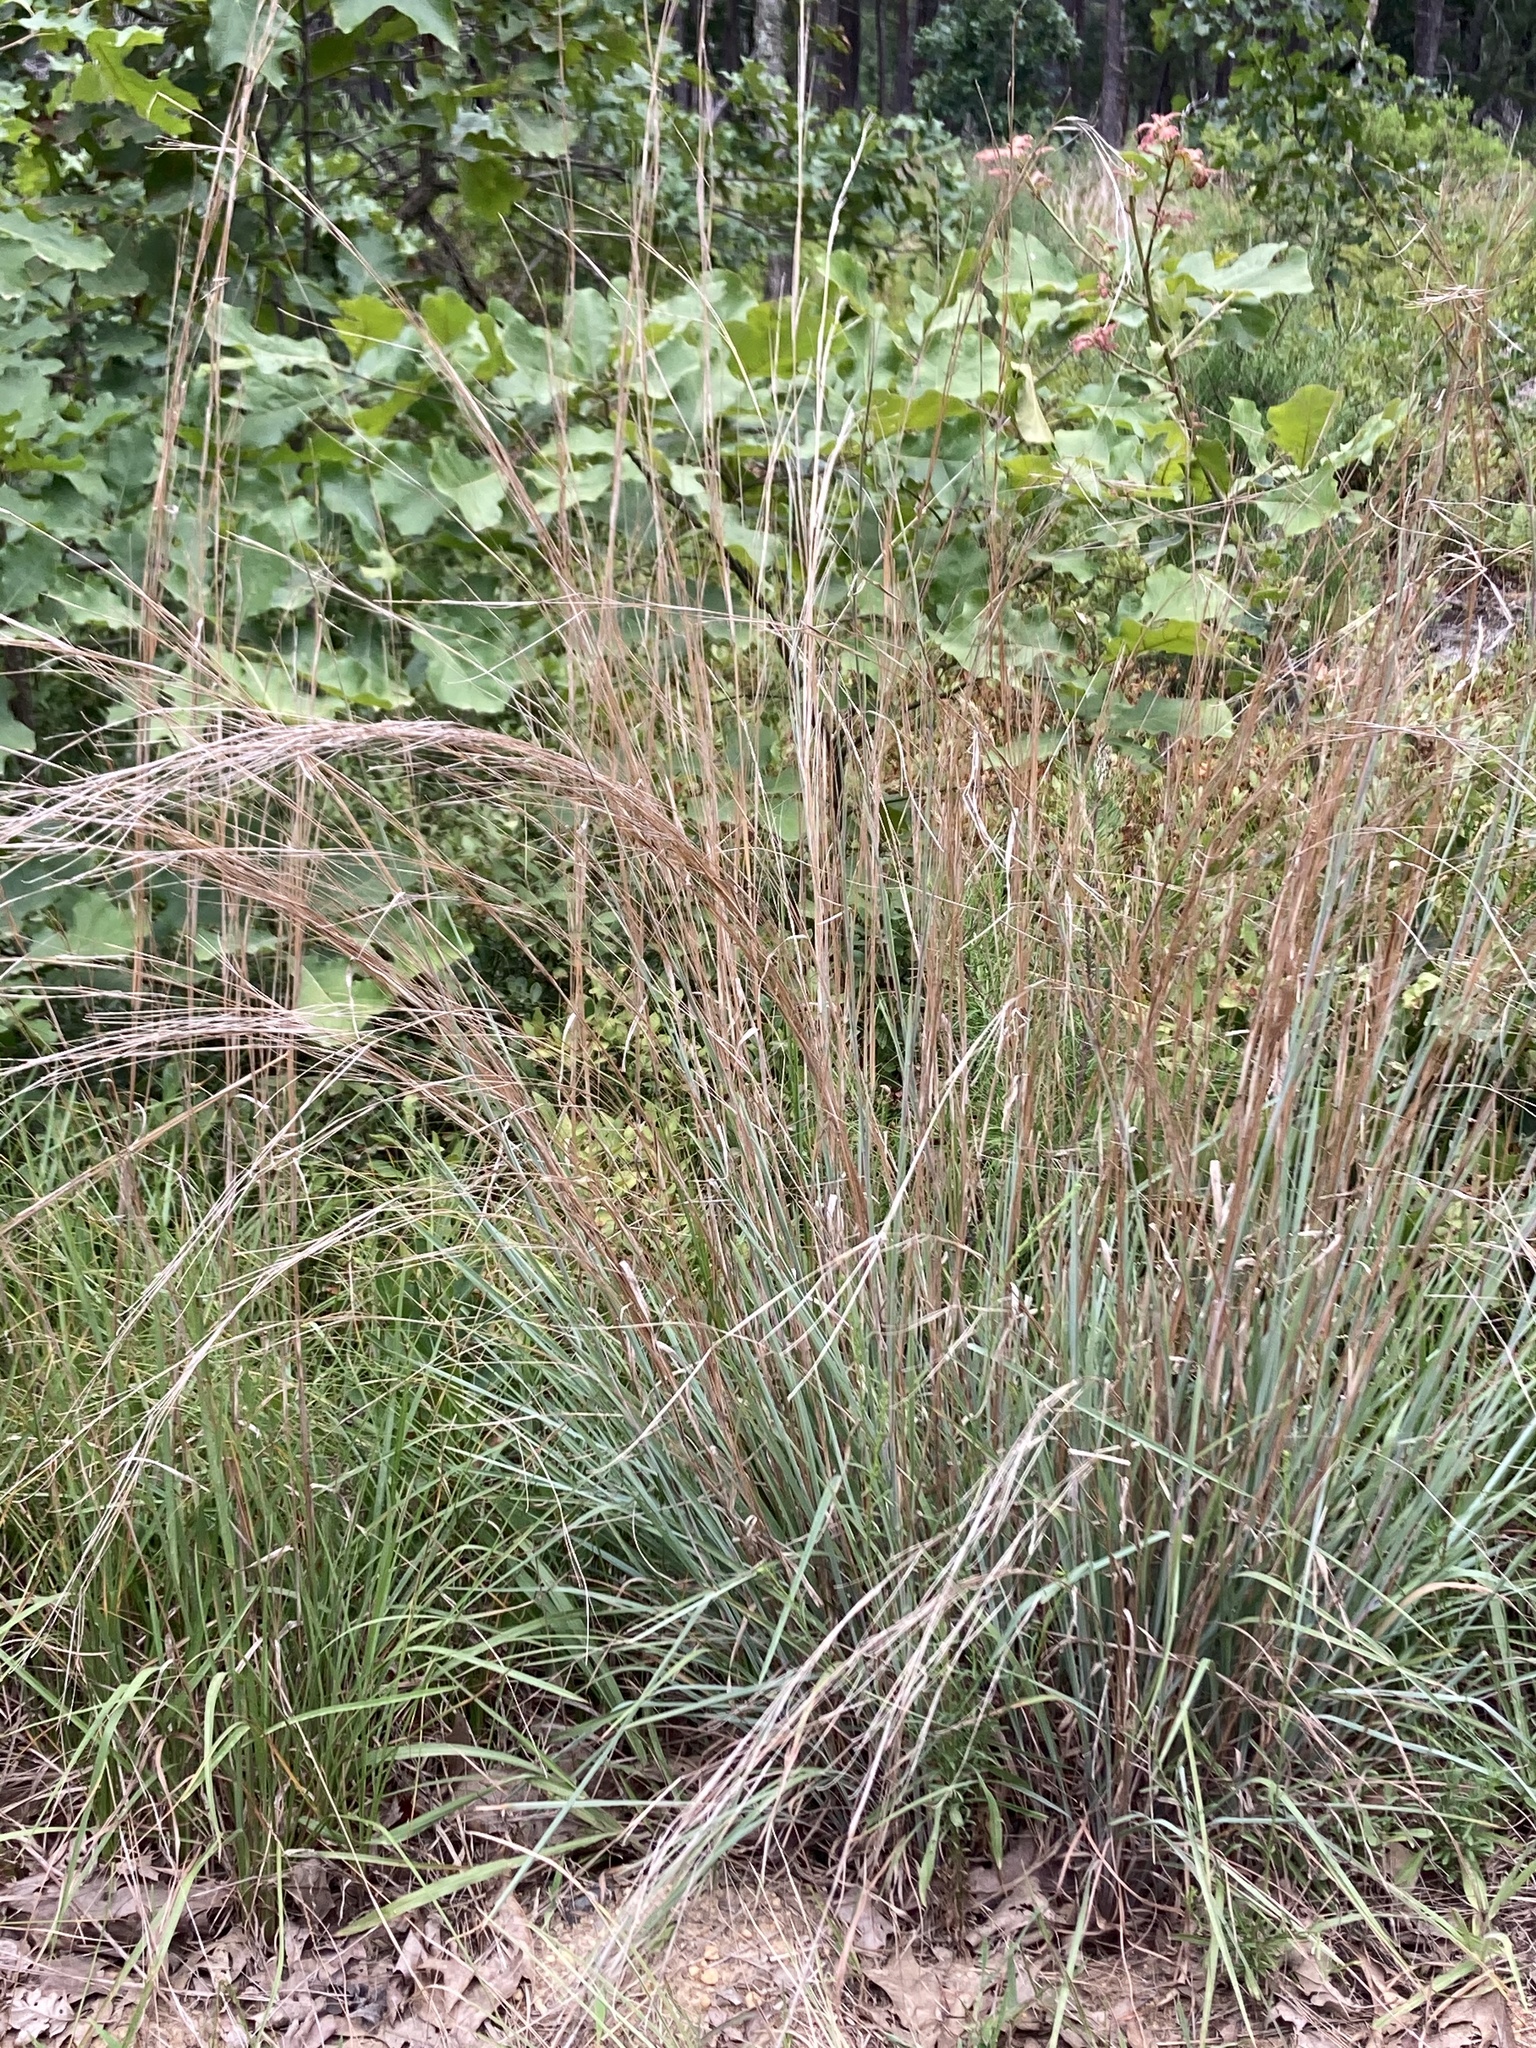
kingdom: Plantae
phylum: Tracheophyta
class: Liliopsida
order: Poales
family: Poaceae
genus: Schizachyrium
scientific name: Schizachyrium scoparium
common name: Little bluestem
